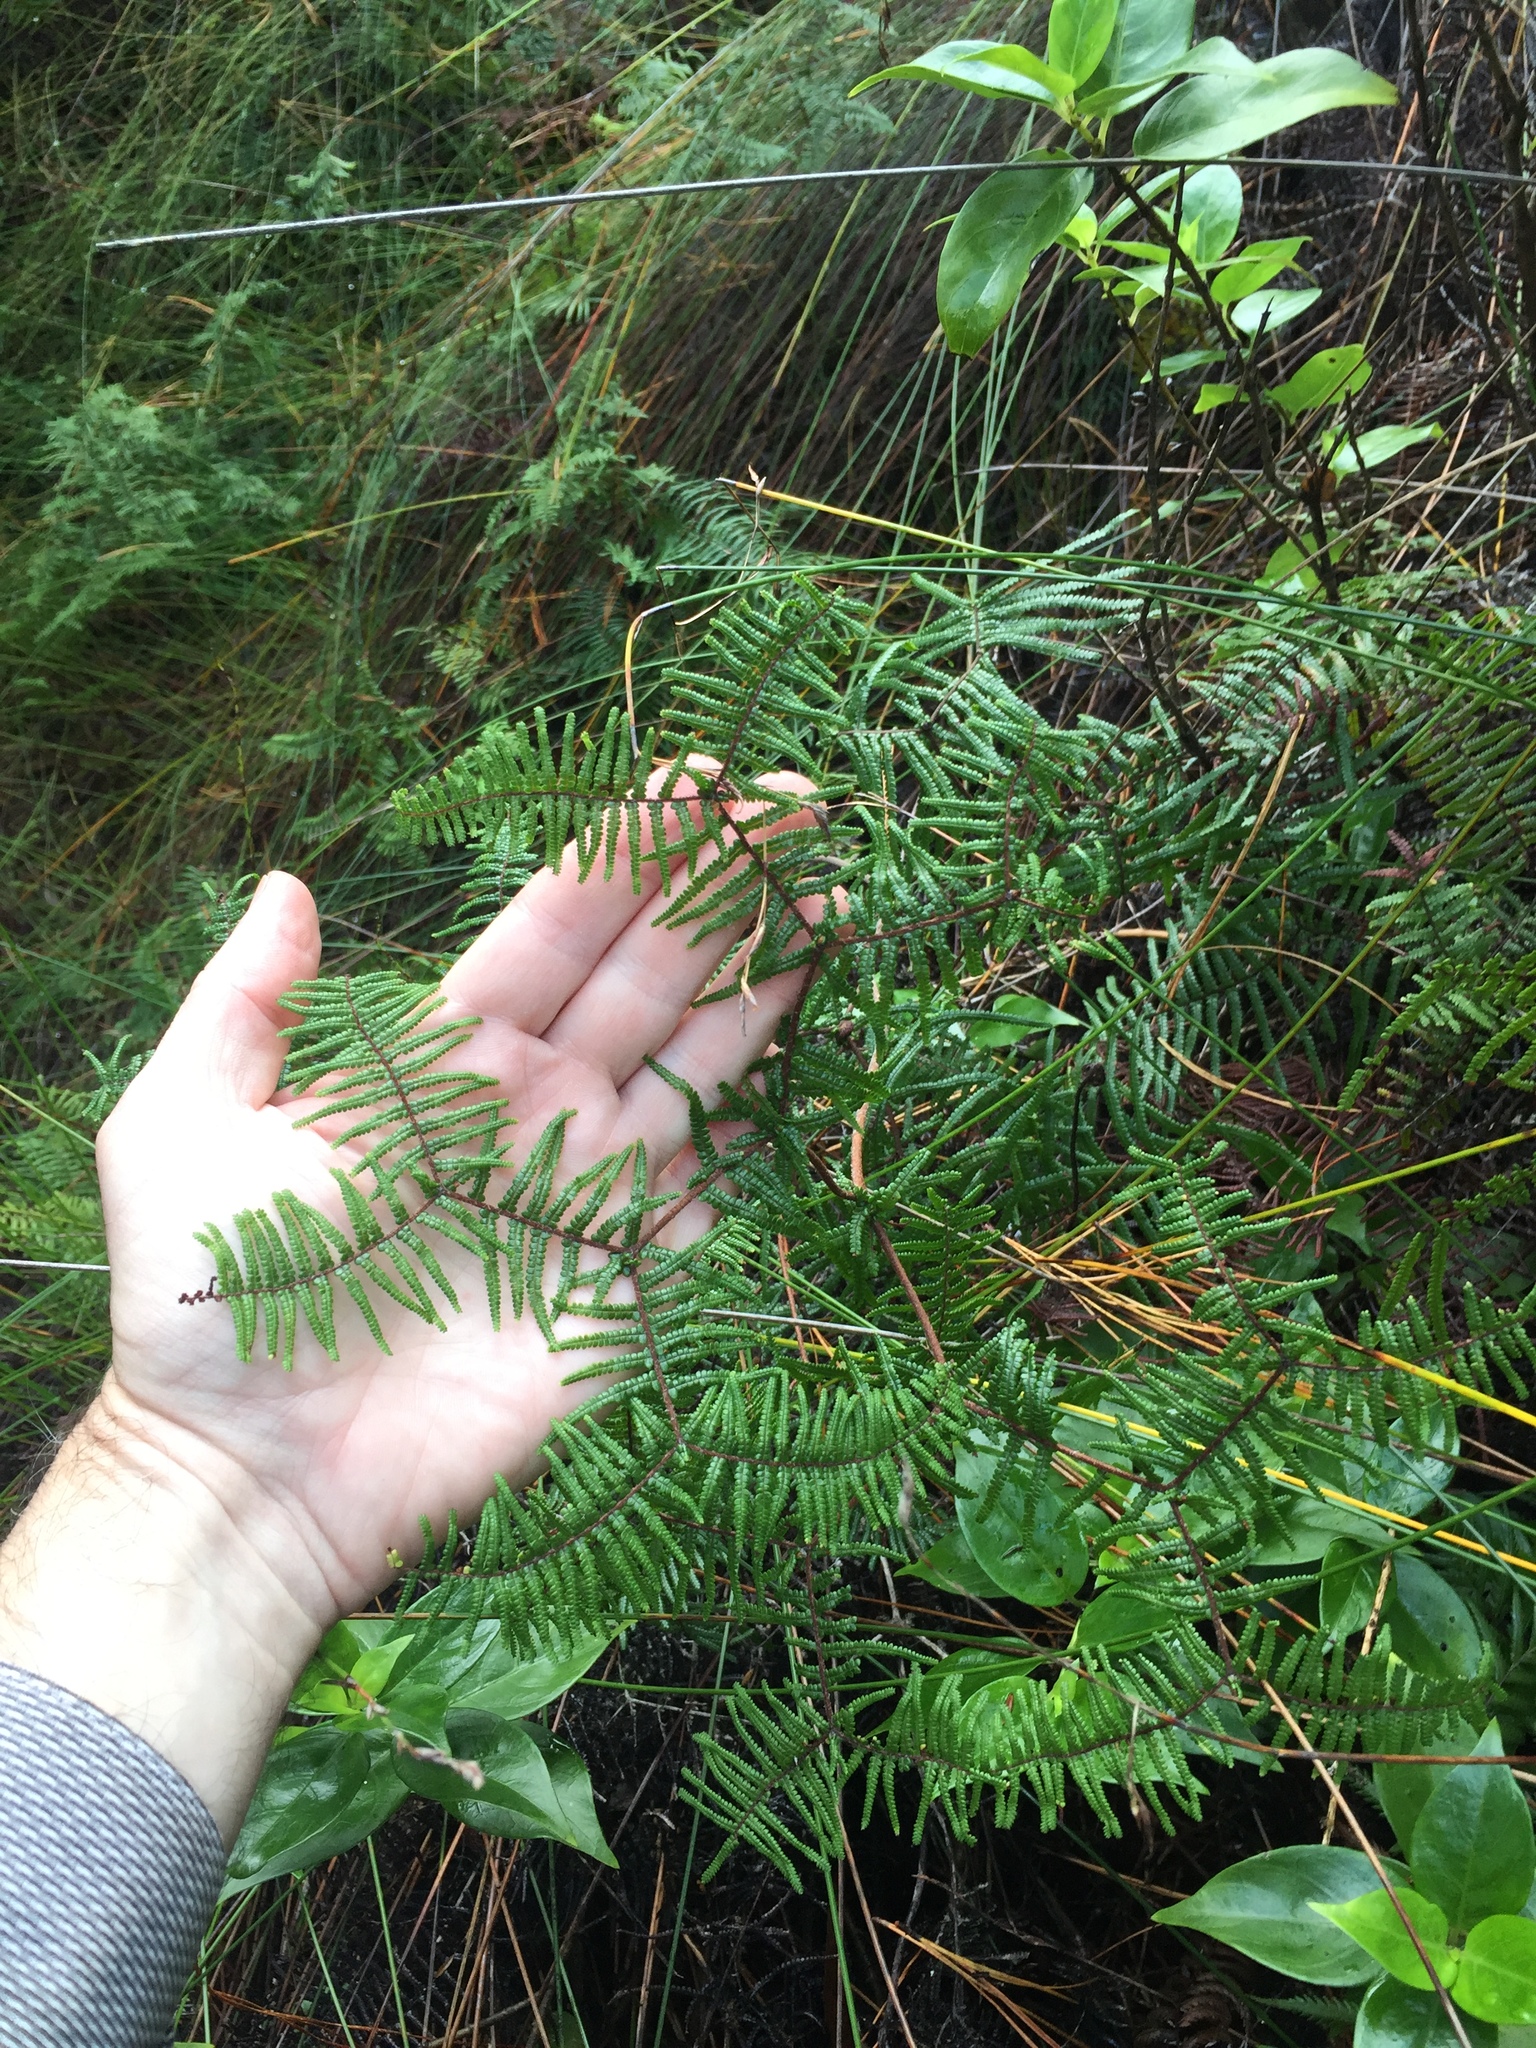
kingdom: Plantae
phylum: Tracheophyta
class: Polypodiopsida
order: Gleicheniales
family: Gleicheniaceae
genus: Gleichenia
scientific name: Gleichenia microphylla
